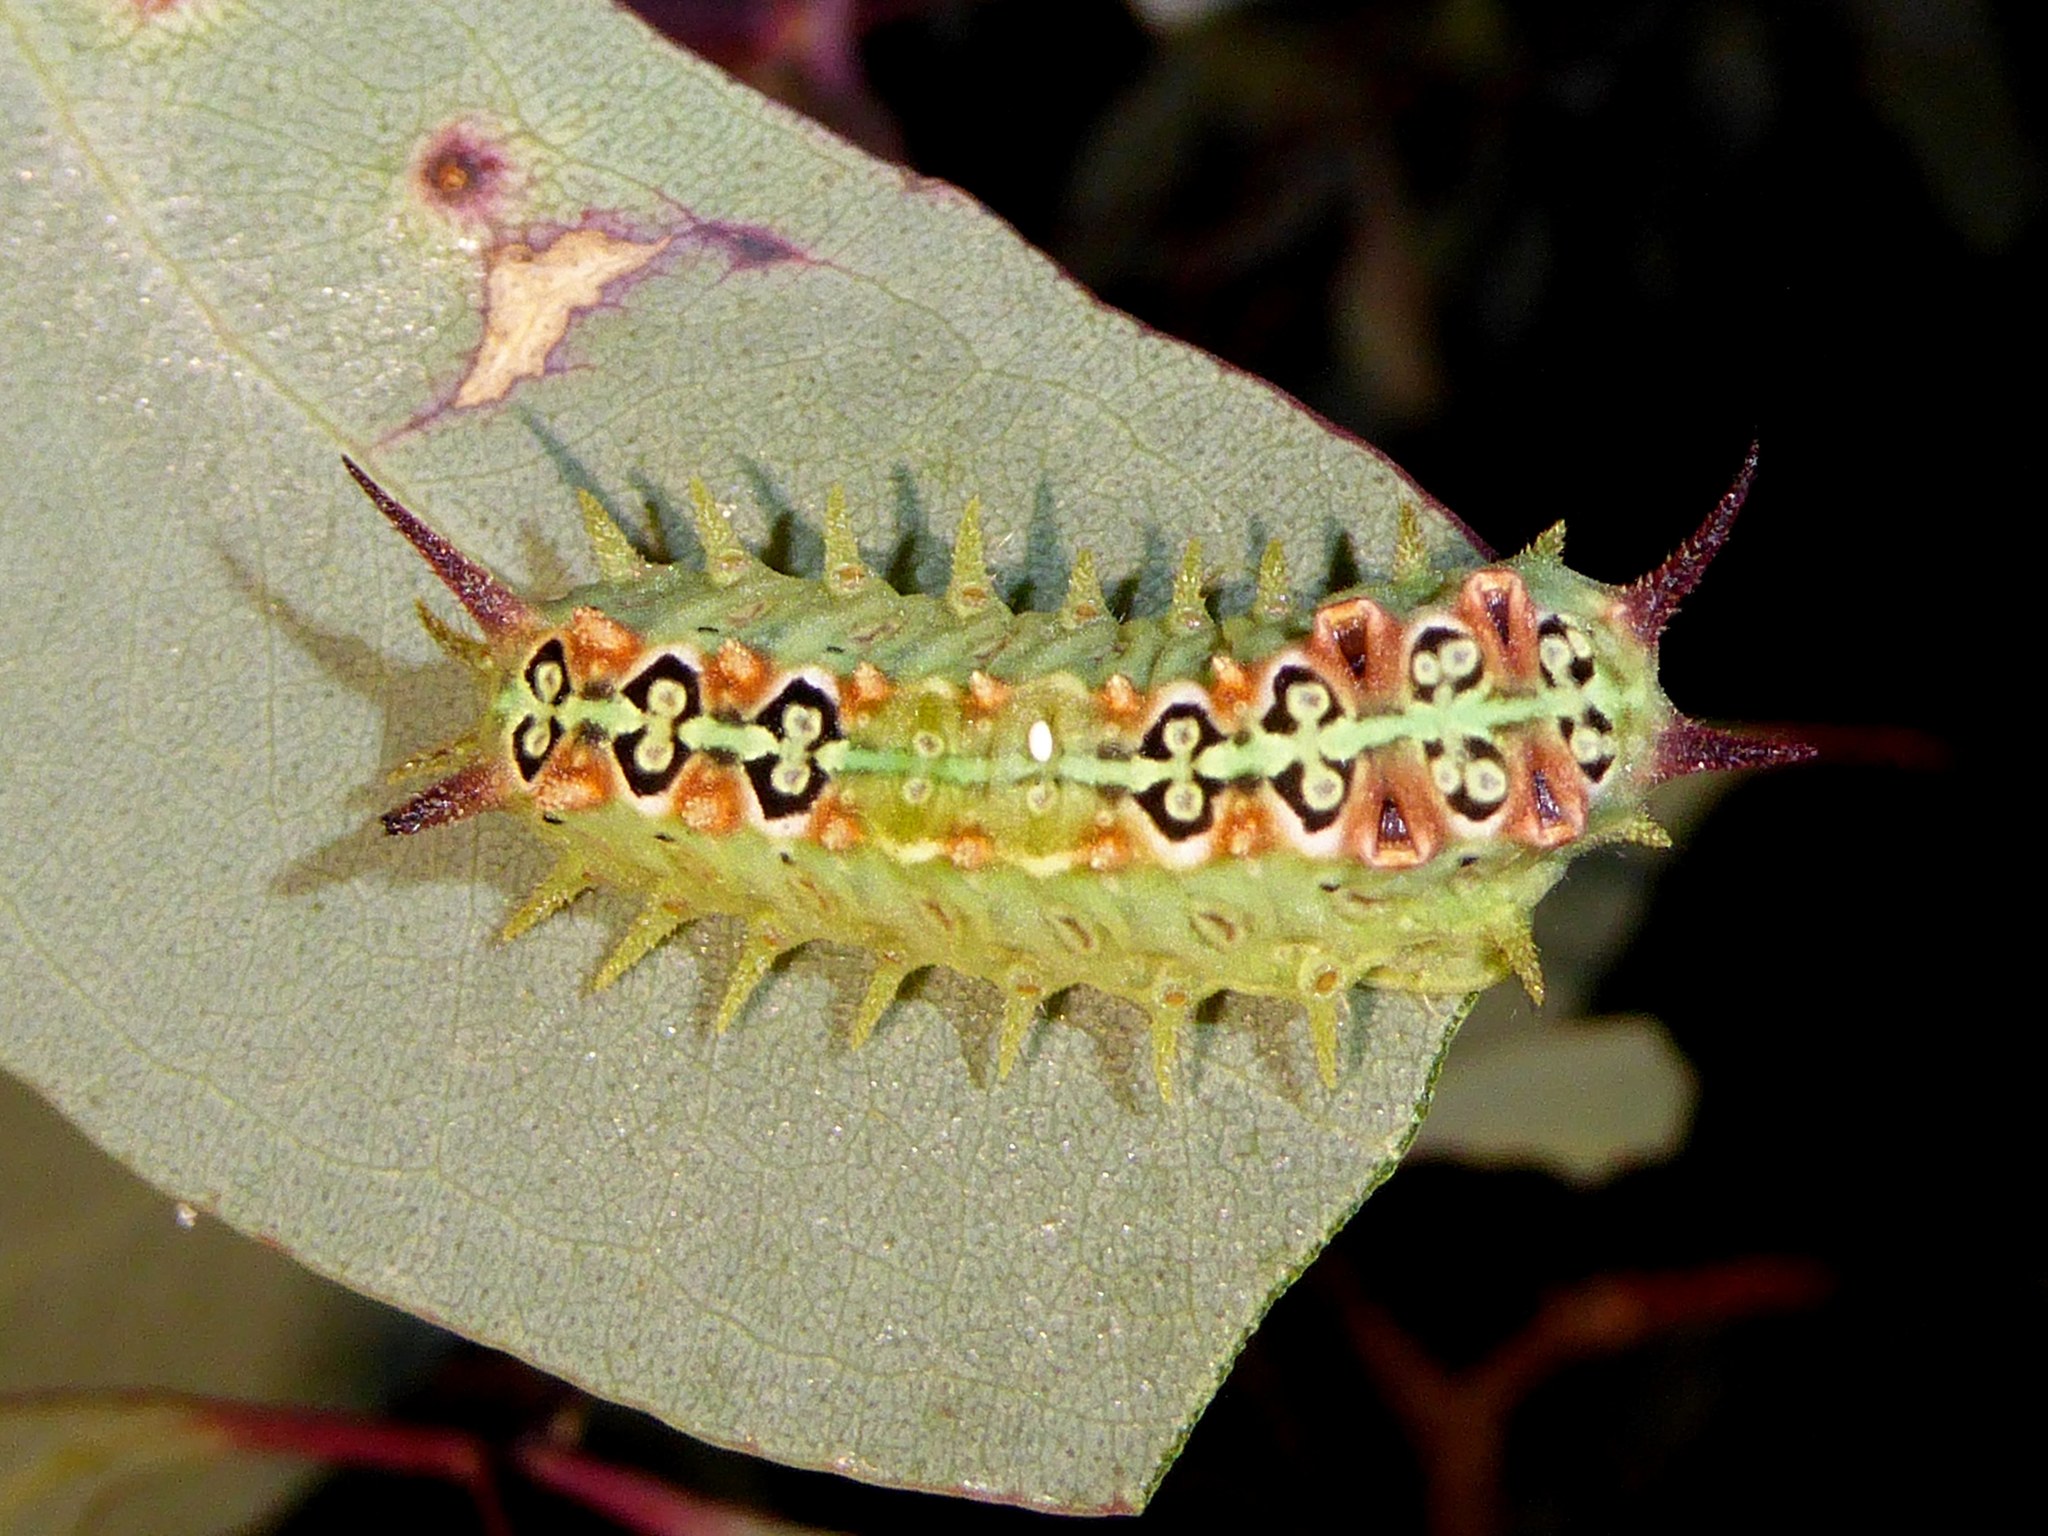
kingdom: Animalia
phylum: Arthropoda
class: Insecta
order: Lepidoptera
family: Limacodidae
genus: Doratifera
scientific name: Doratifera quadriguttata
